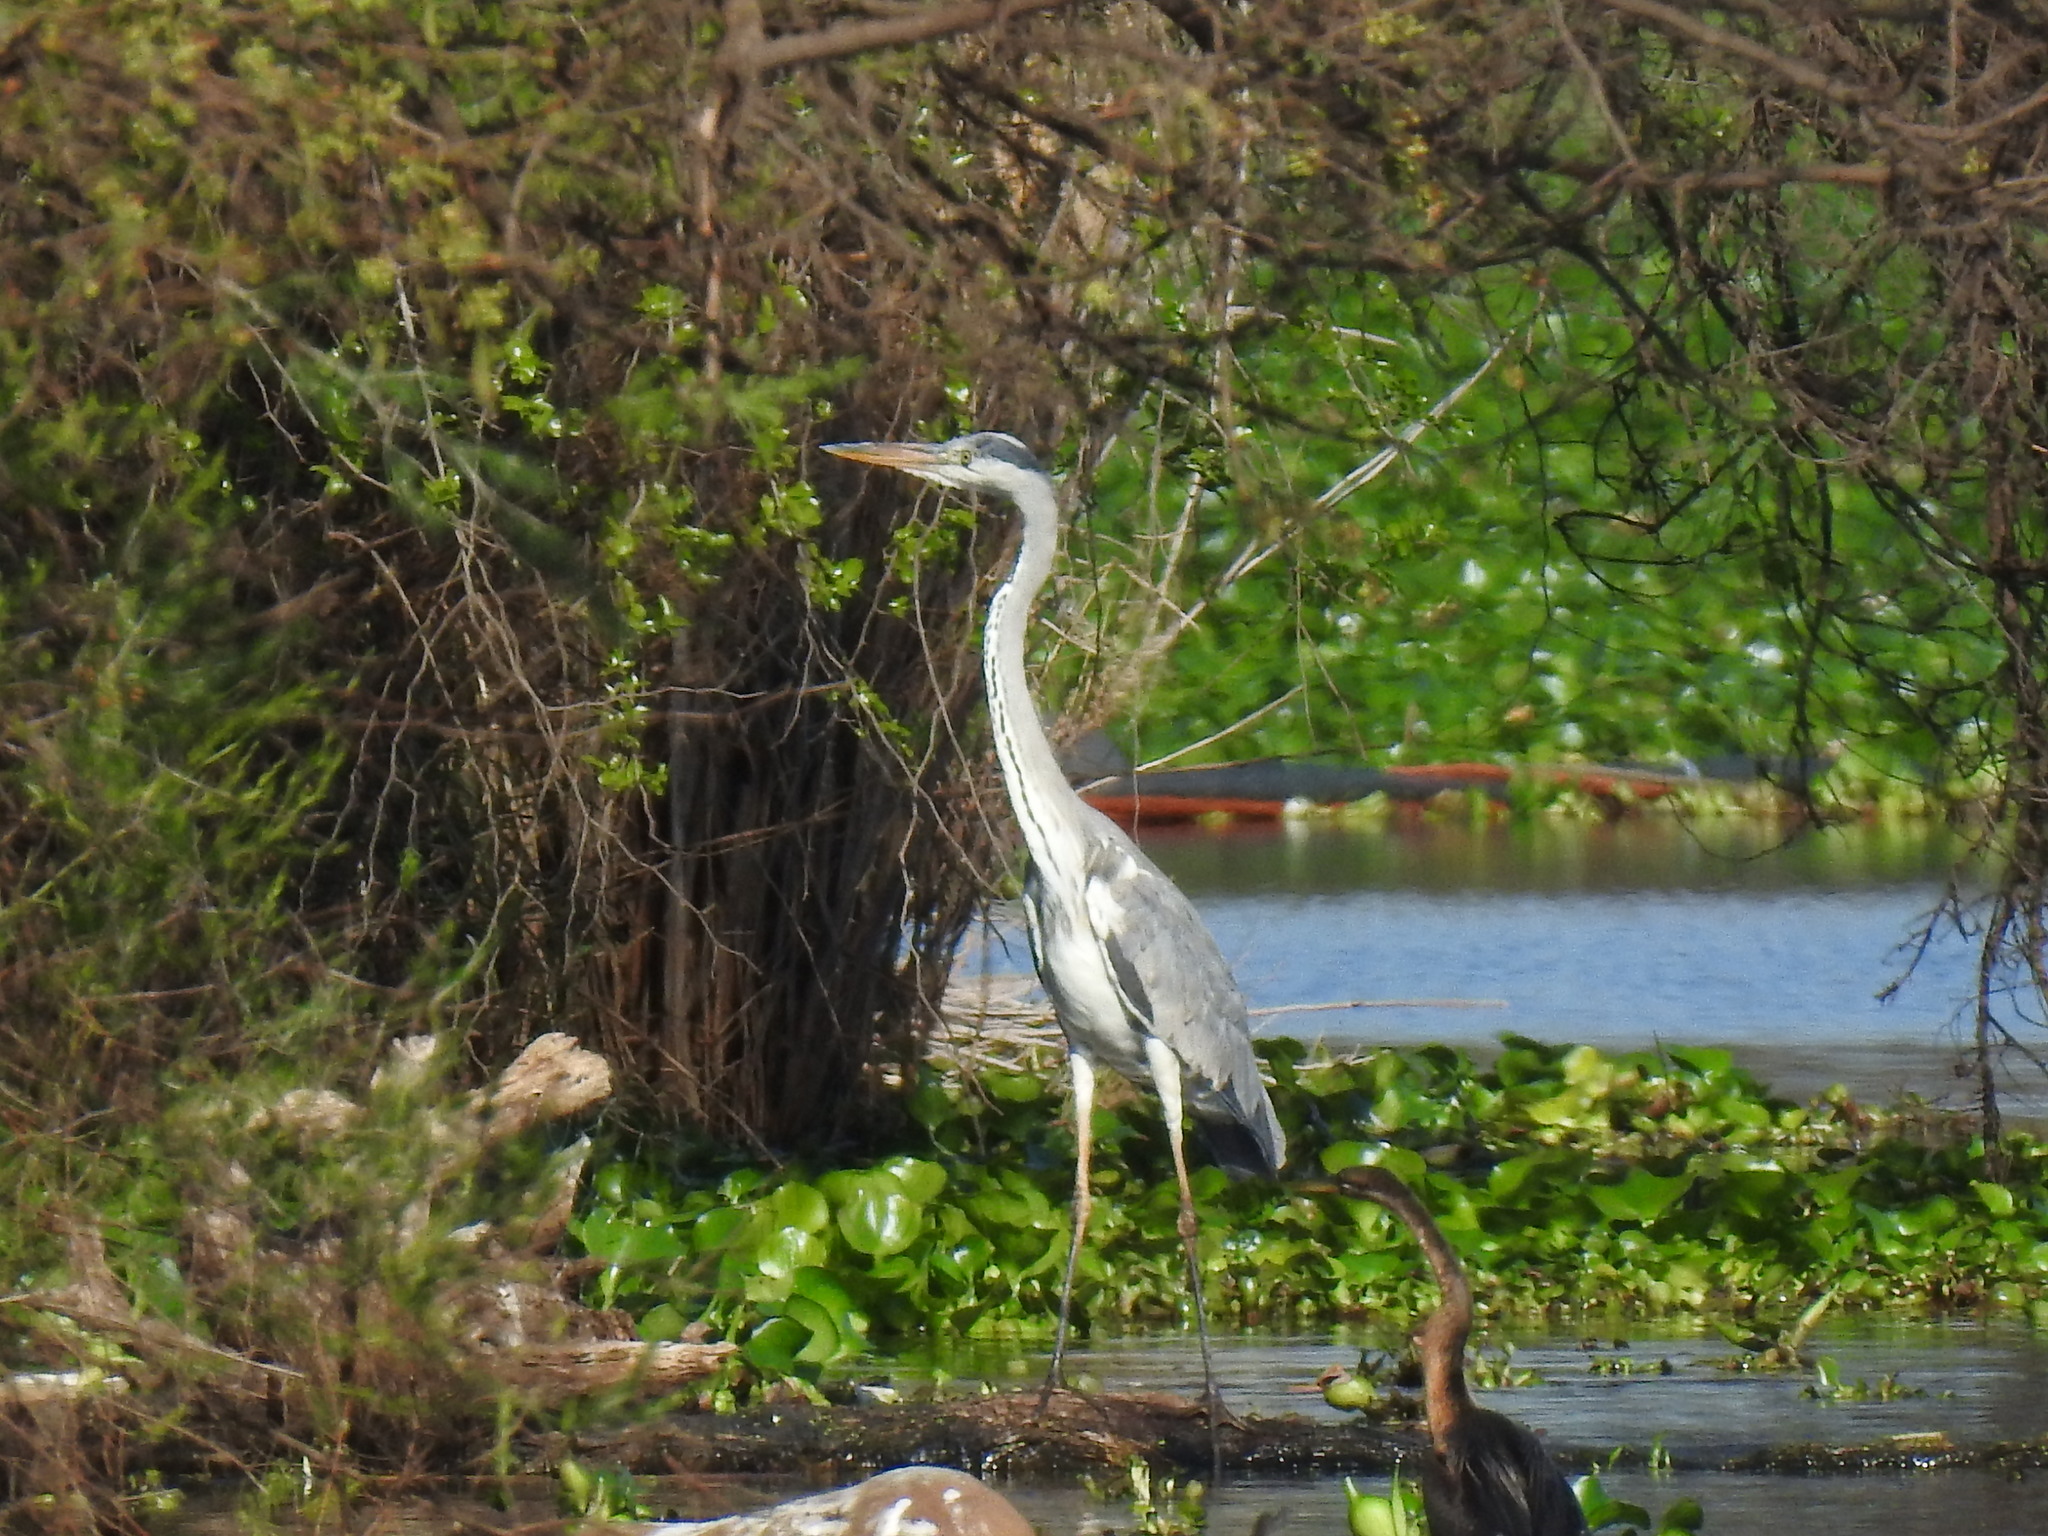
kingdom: Animalia
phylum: Chordata
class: Aves
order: Pelecaniformes
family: Ardeidae
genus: Ardea
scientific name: Ardea cinerea
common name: Grey heron
